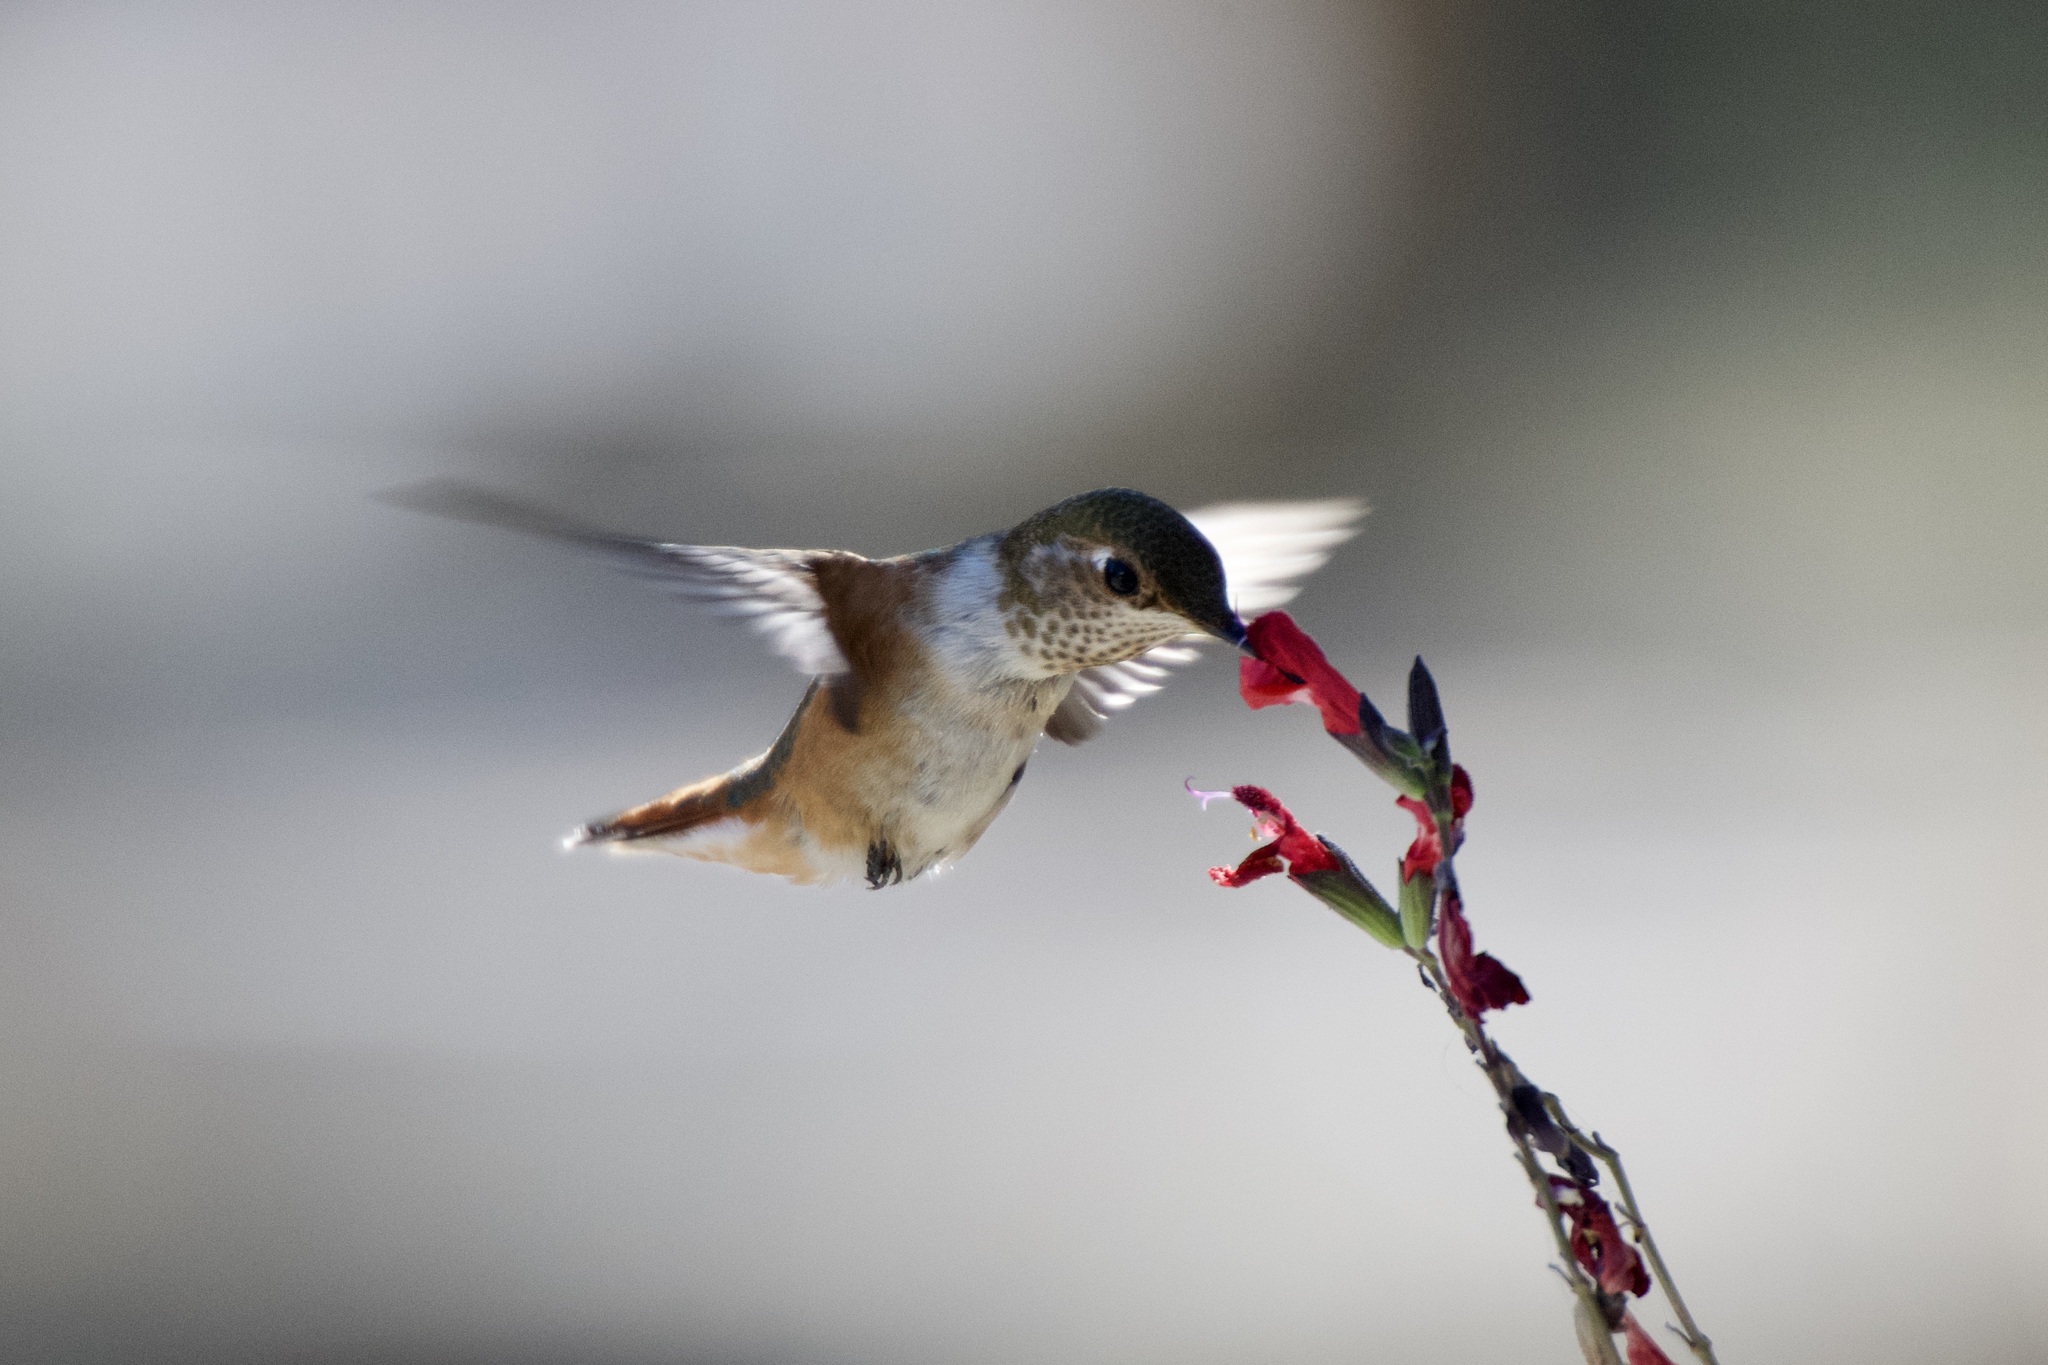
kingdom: Animalia
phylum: Chordata
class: Aves
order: Apodiformes
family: Trochilidae
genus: Selasphorus
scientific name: Selasphorus rufus
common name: Rufous hummingbird
